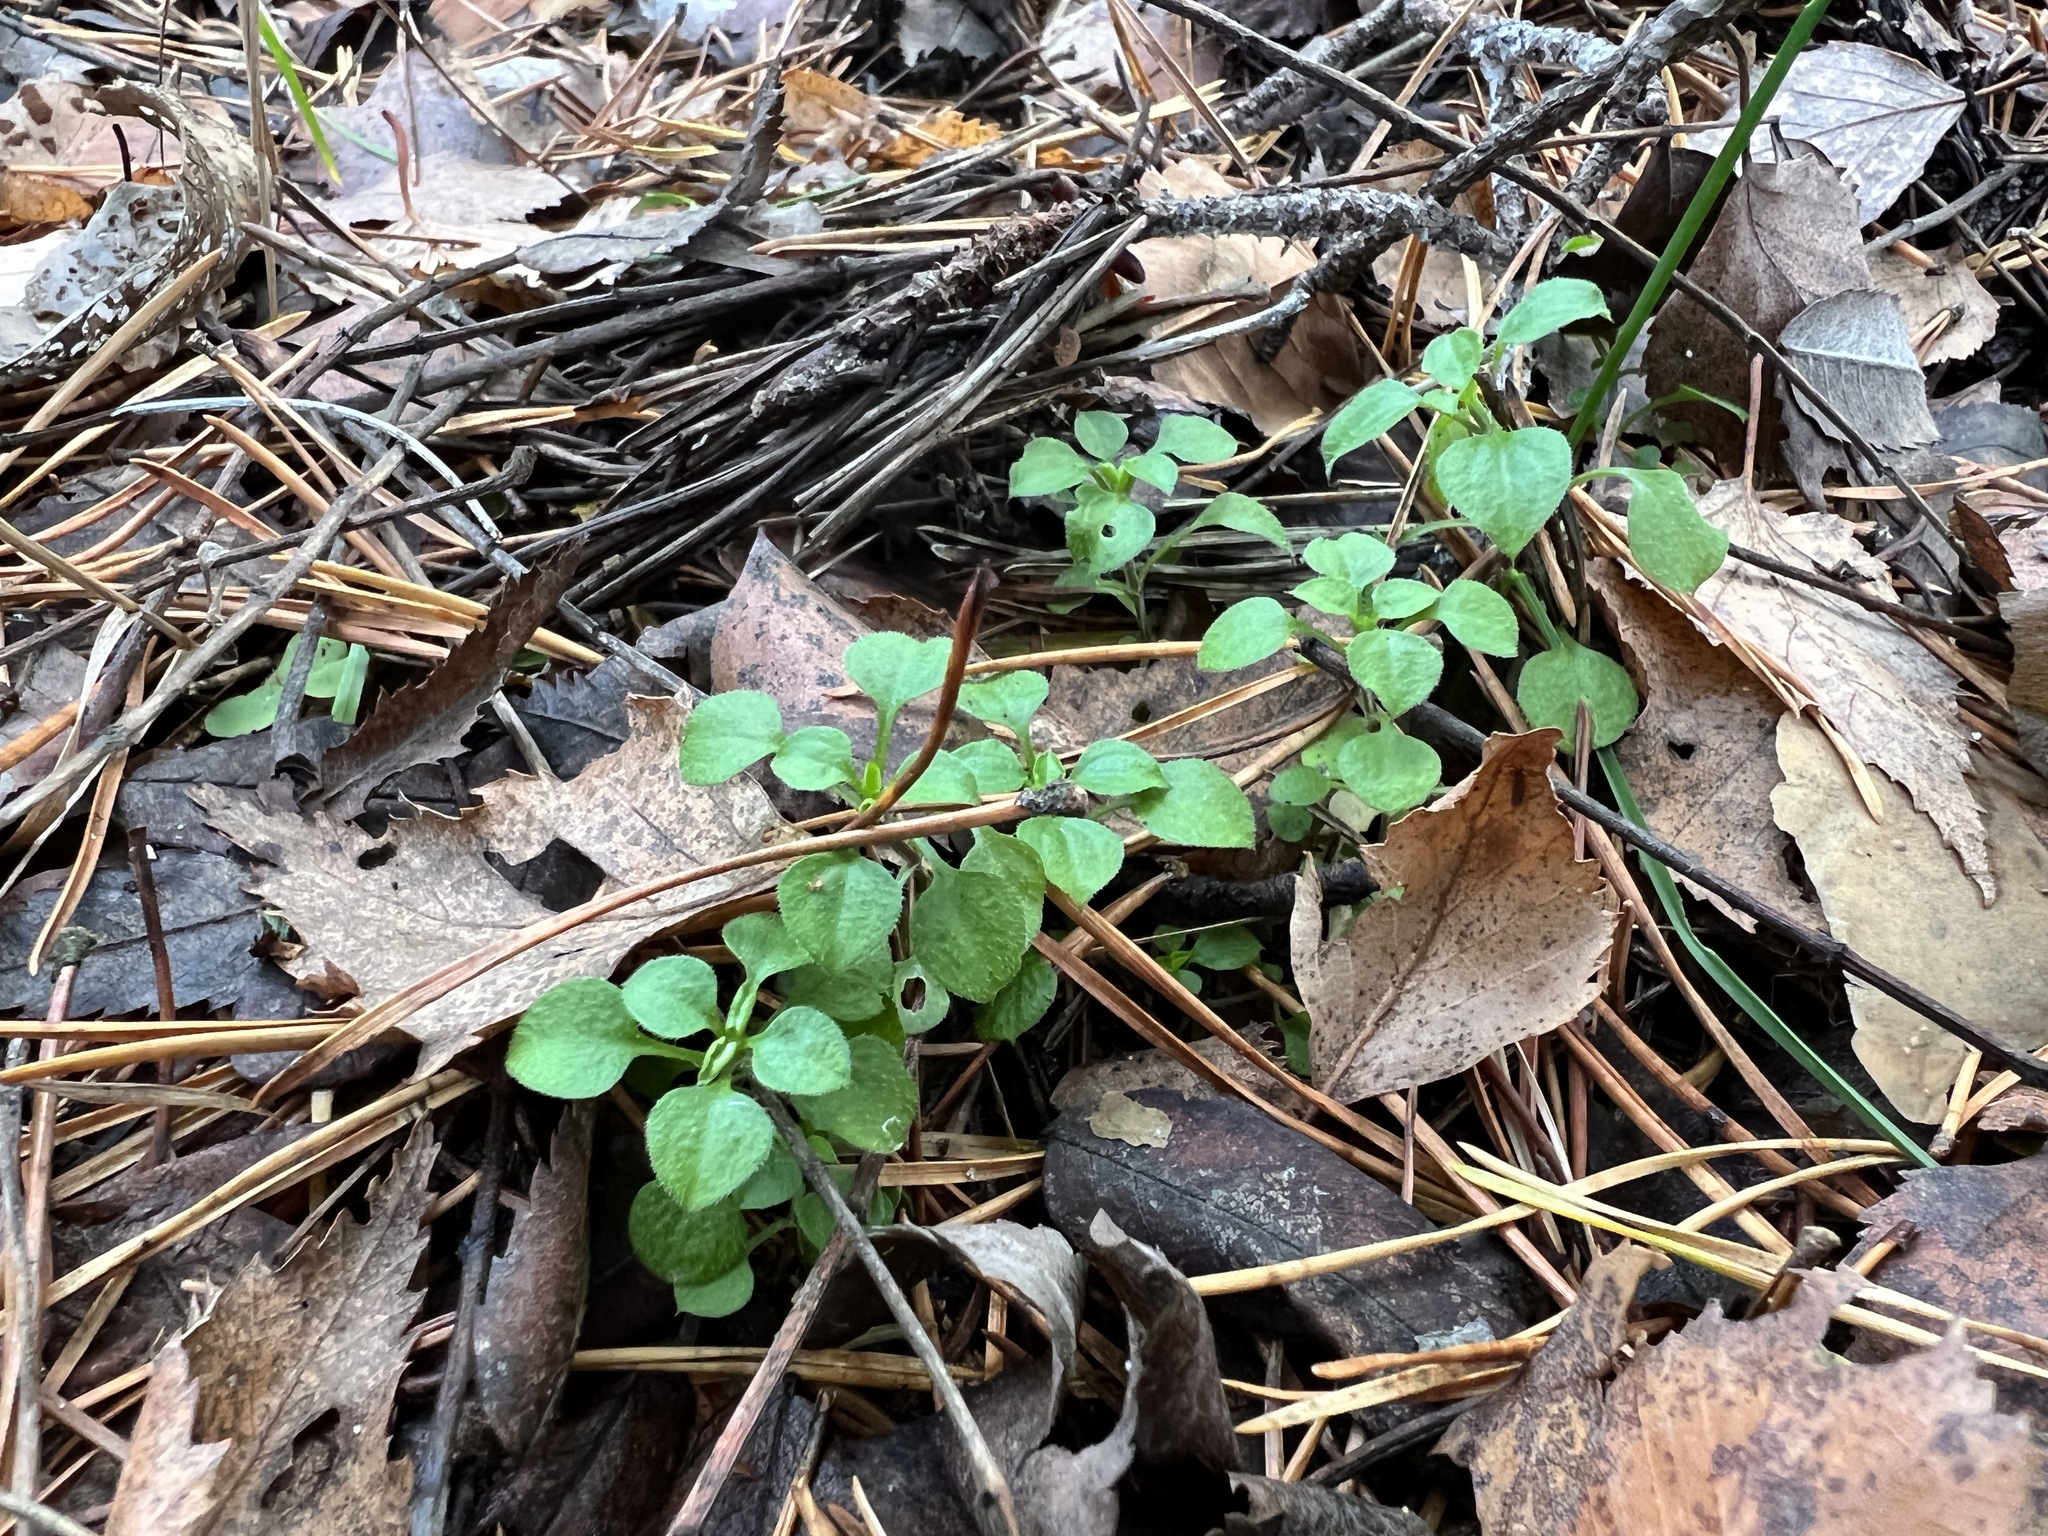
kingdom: Plantae
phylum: Tracheophyta
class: Magnoliopsida
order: Caryophyllales
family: Caryophyllaceae
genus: Moehringia
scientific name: Moehringia trinervia
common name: Three-nerved sandwort
